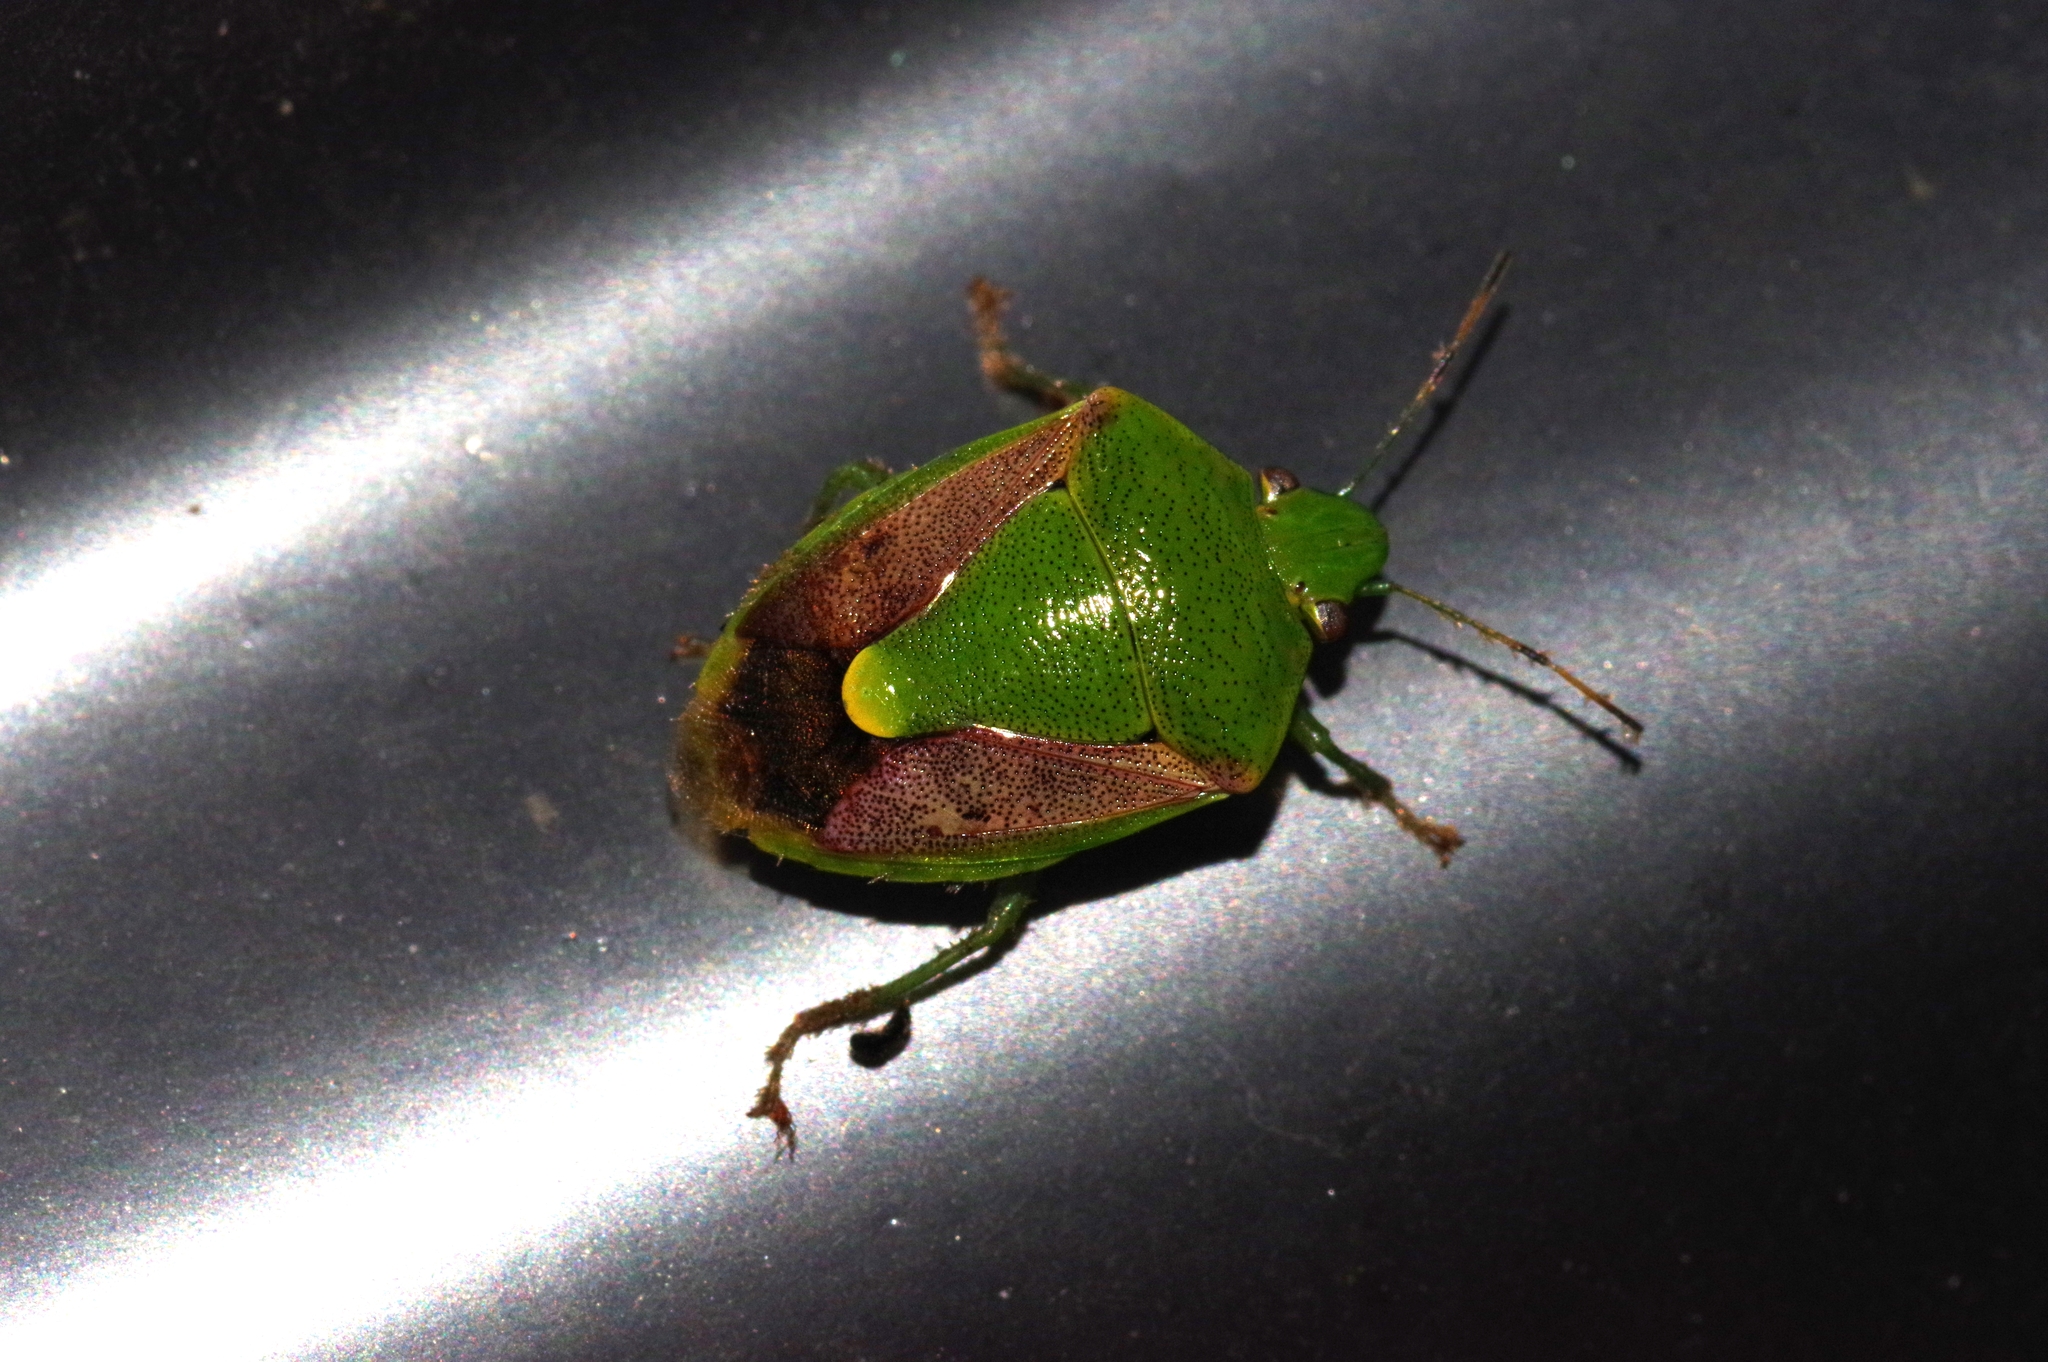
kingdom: Animalia
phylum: Arthropoda
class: Insecta
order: Hemiptera
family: Pentatomidae
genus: Plautia
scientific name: Plautia stali
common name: Stink bug
